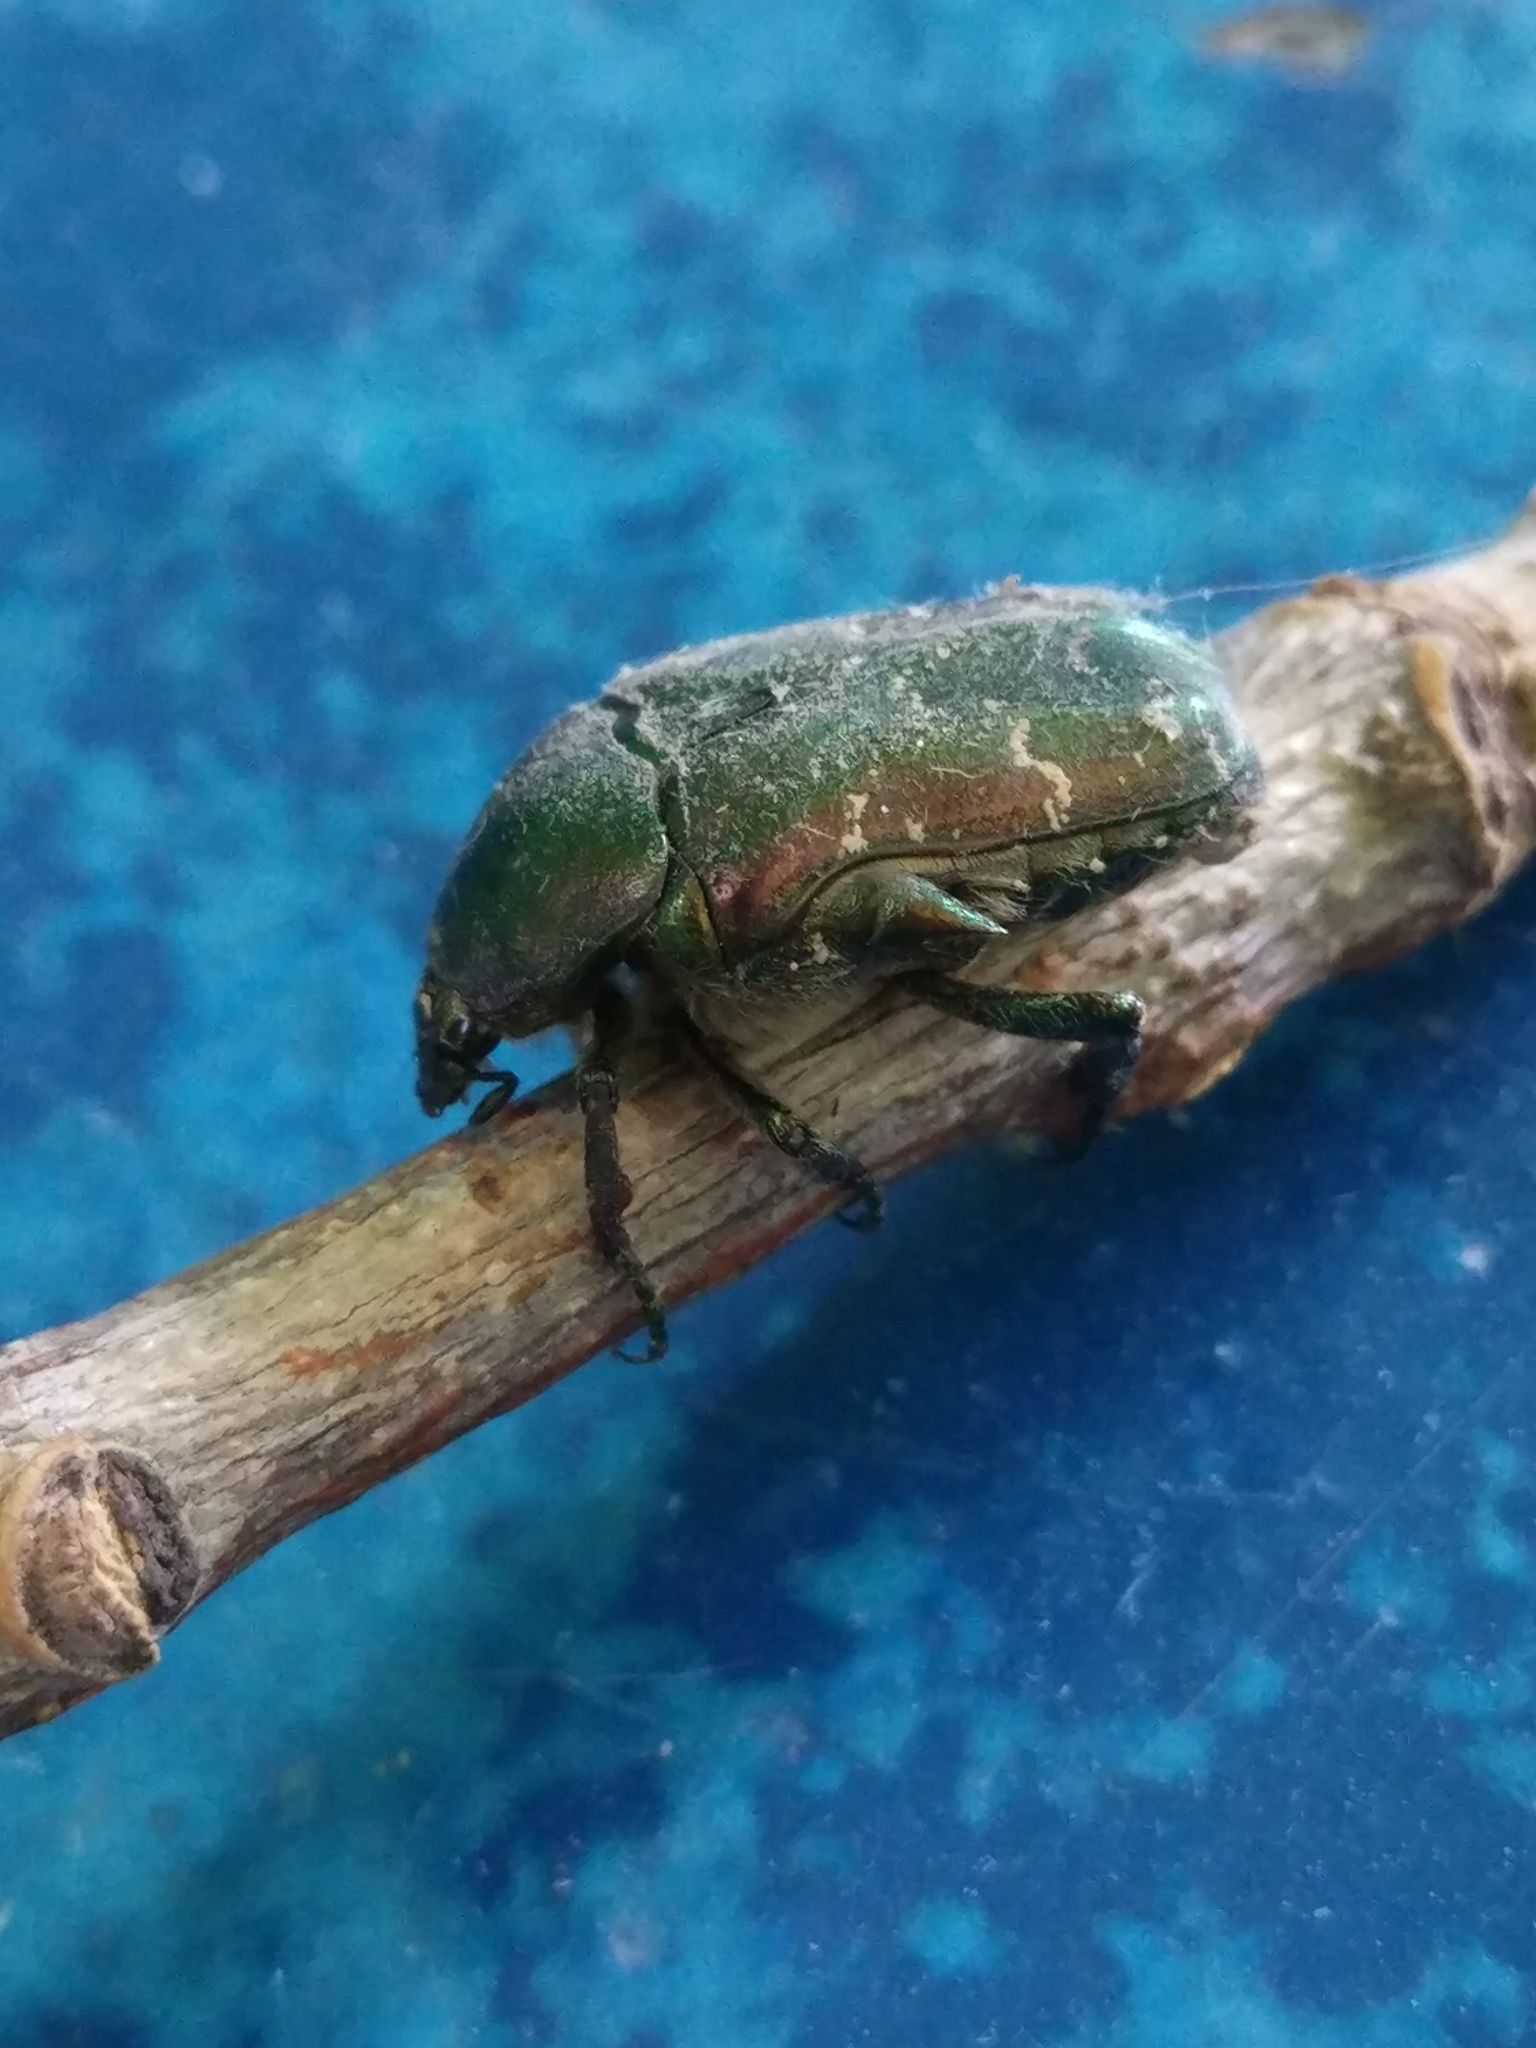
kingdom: Animalia
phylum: Arthropoda
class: Insecta
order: Coleoptera
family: Scarabaeidae
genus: Protaetia
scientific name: Protaetia cuprea
